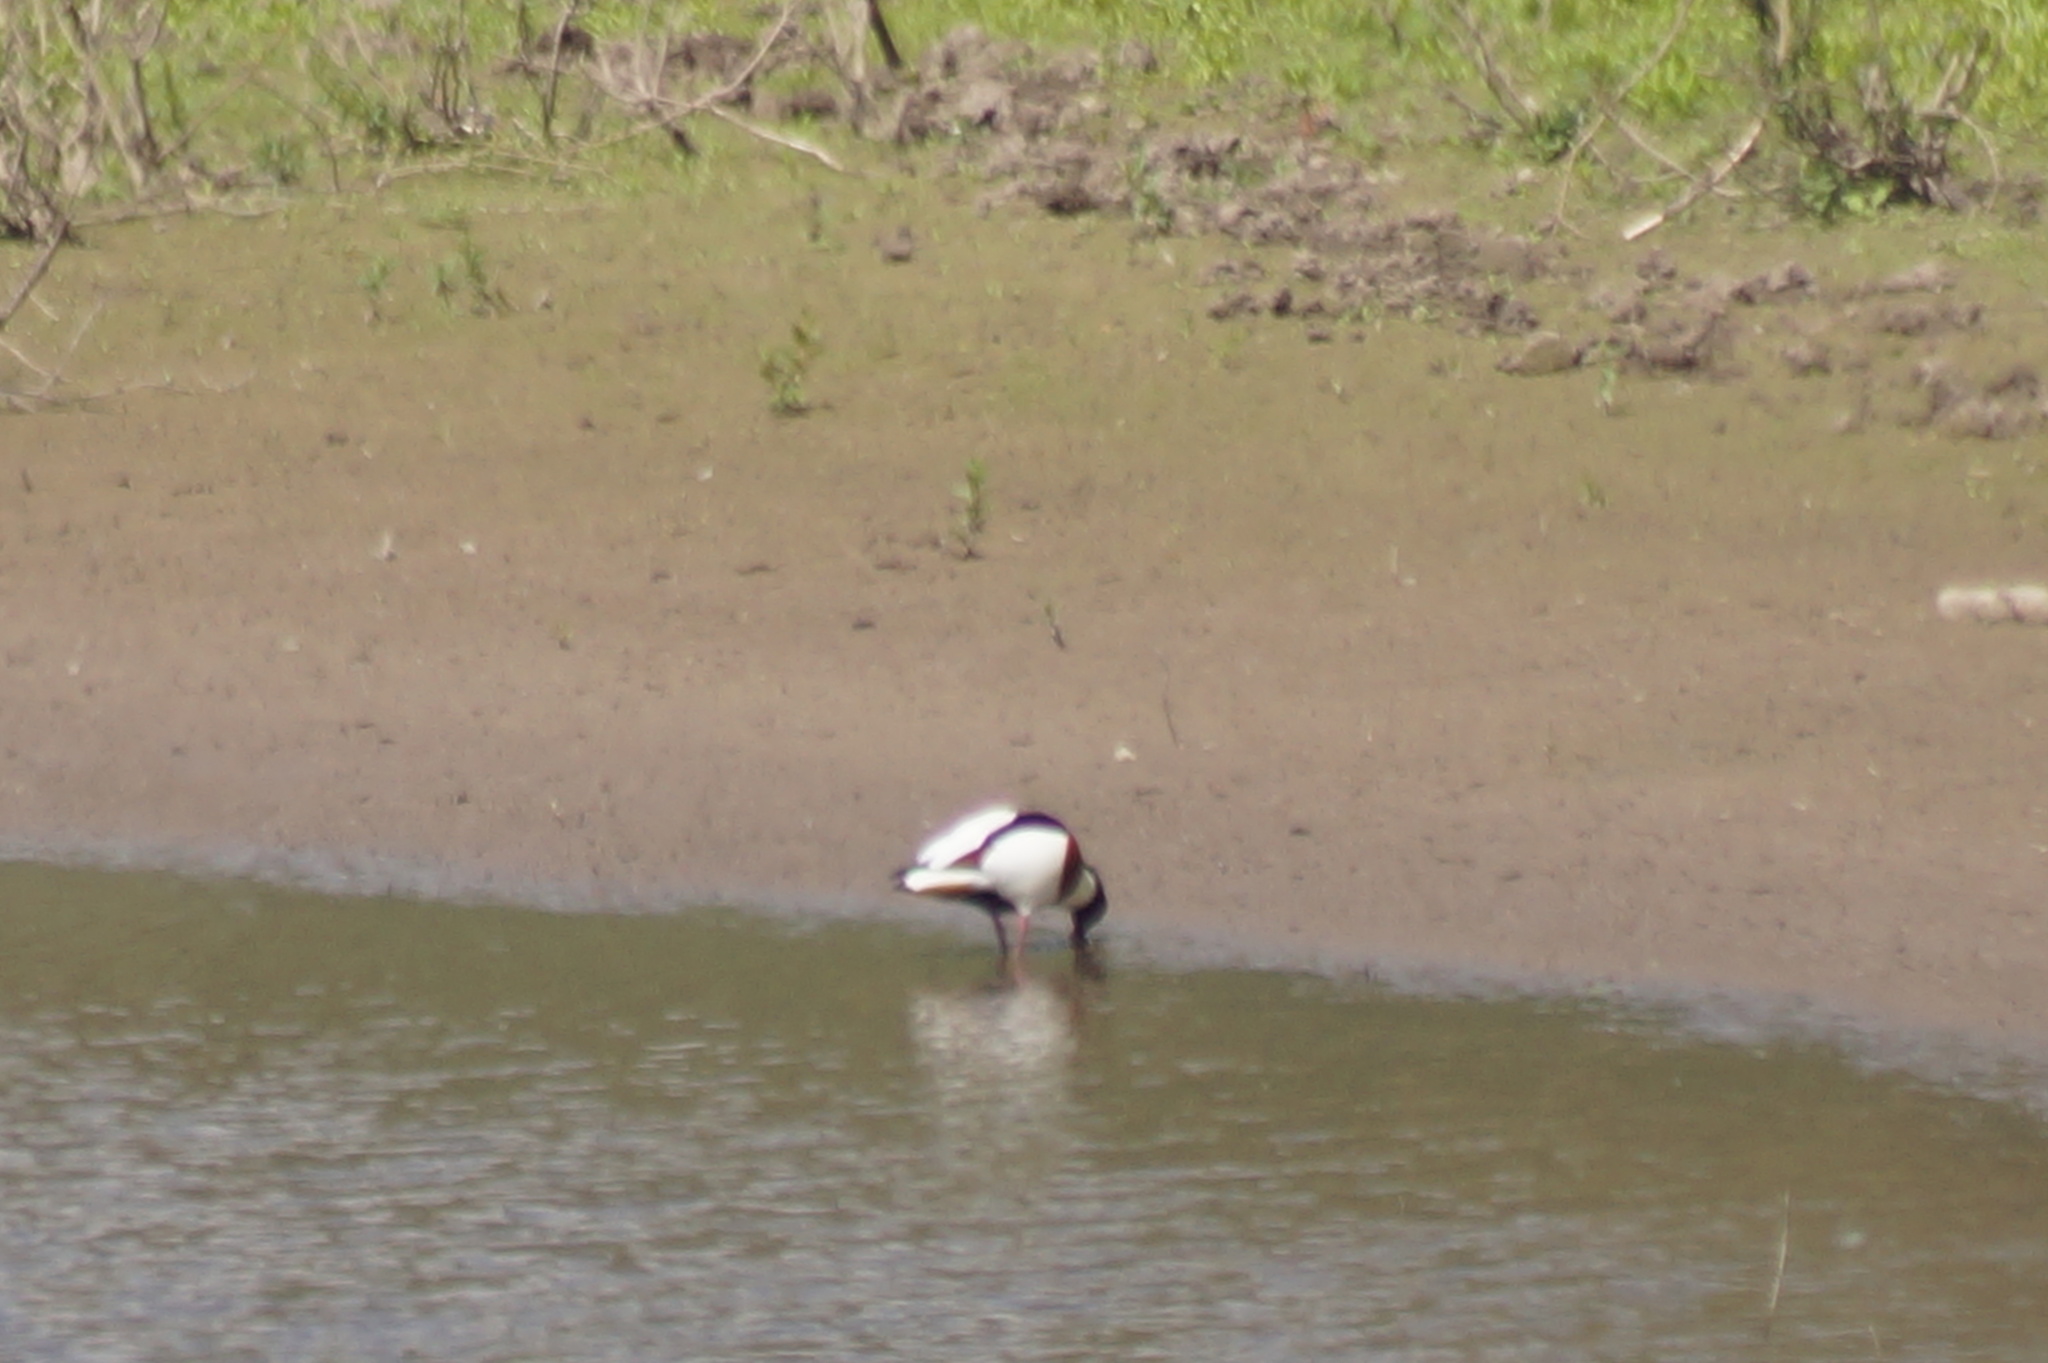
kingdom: Animalia
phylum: Chordata
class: Aves
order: Anseriformes
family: Anatidae
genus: Tadorna
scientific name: Tadorna tadorna
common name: Common shelduck
